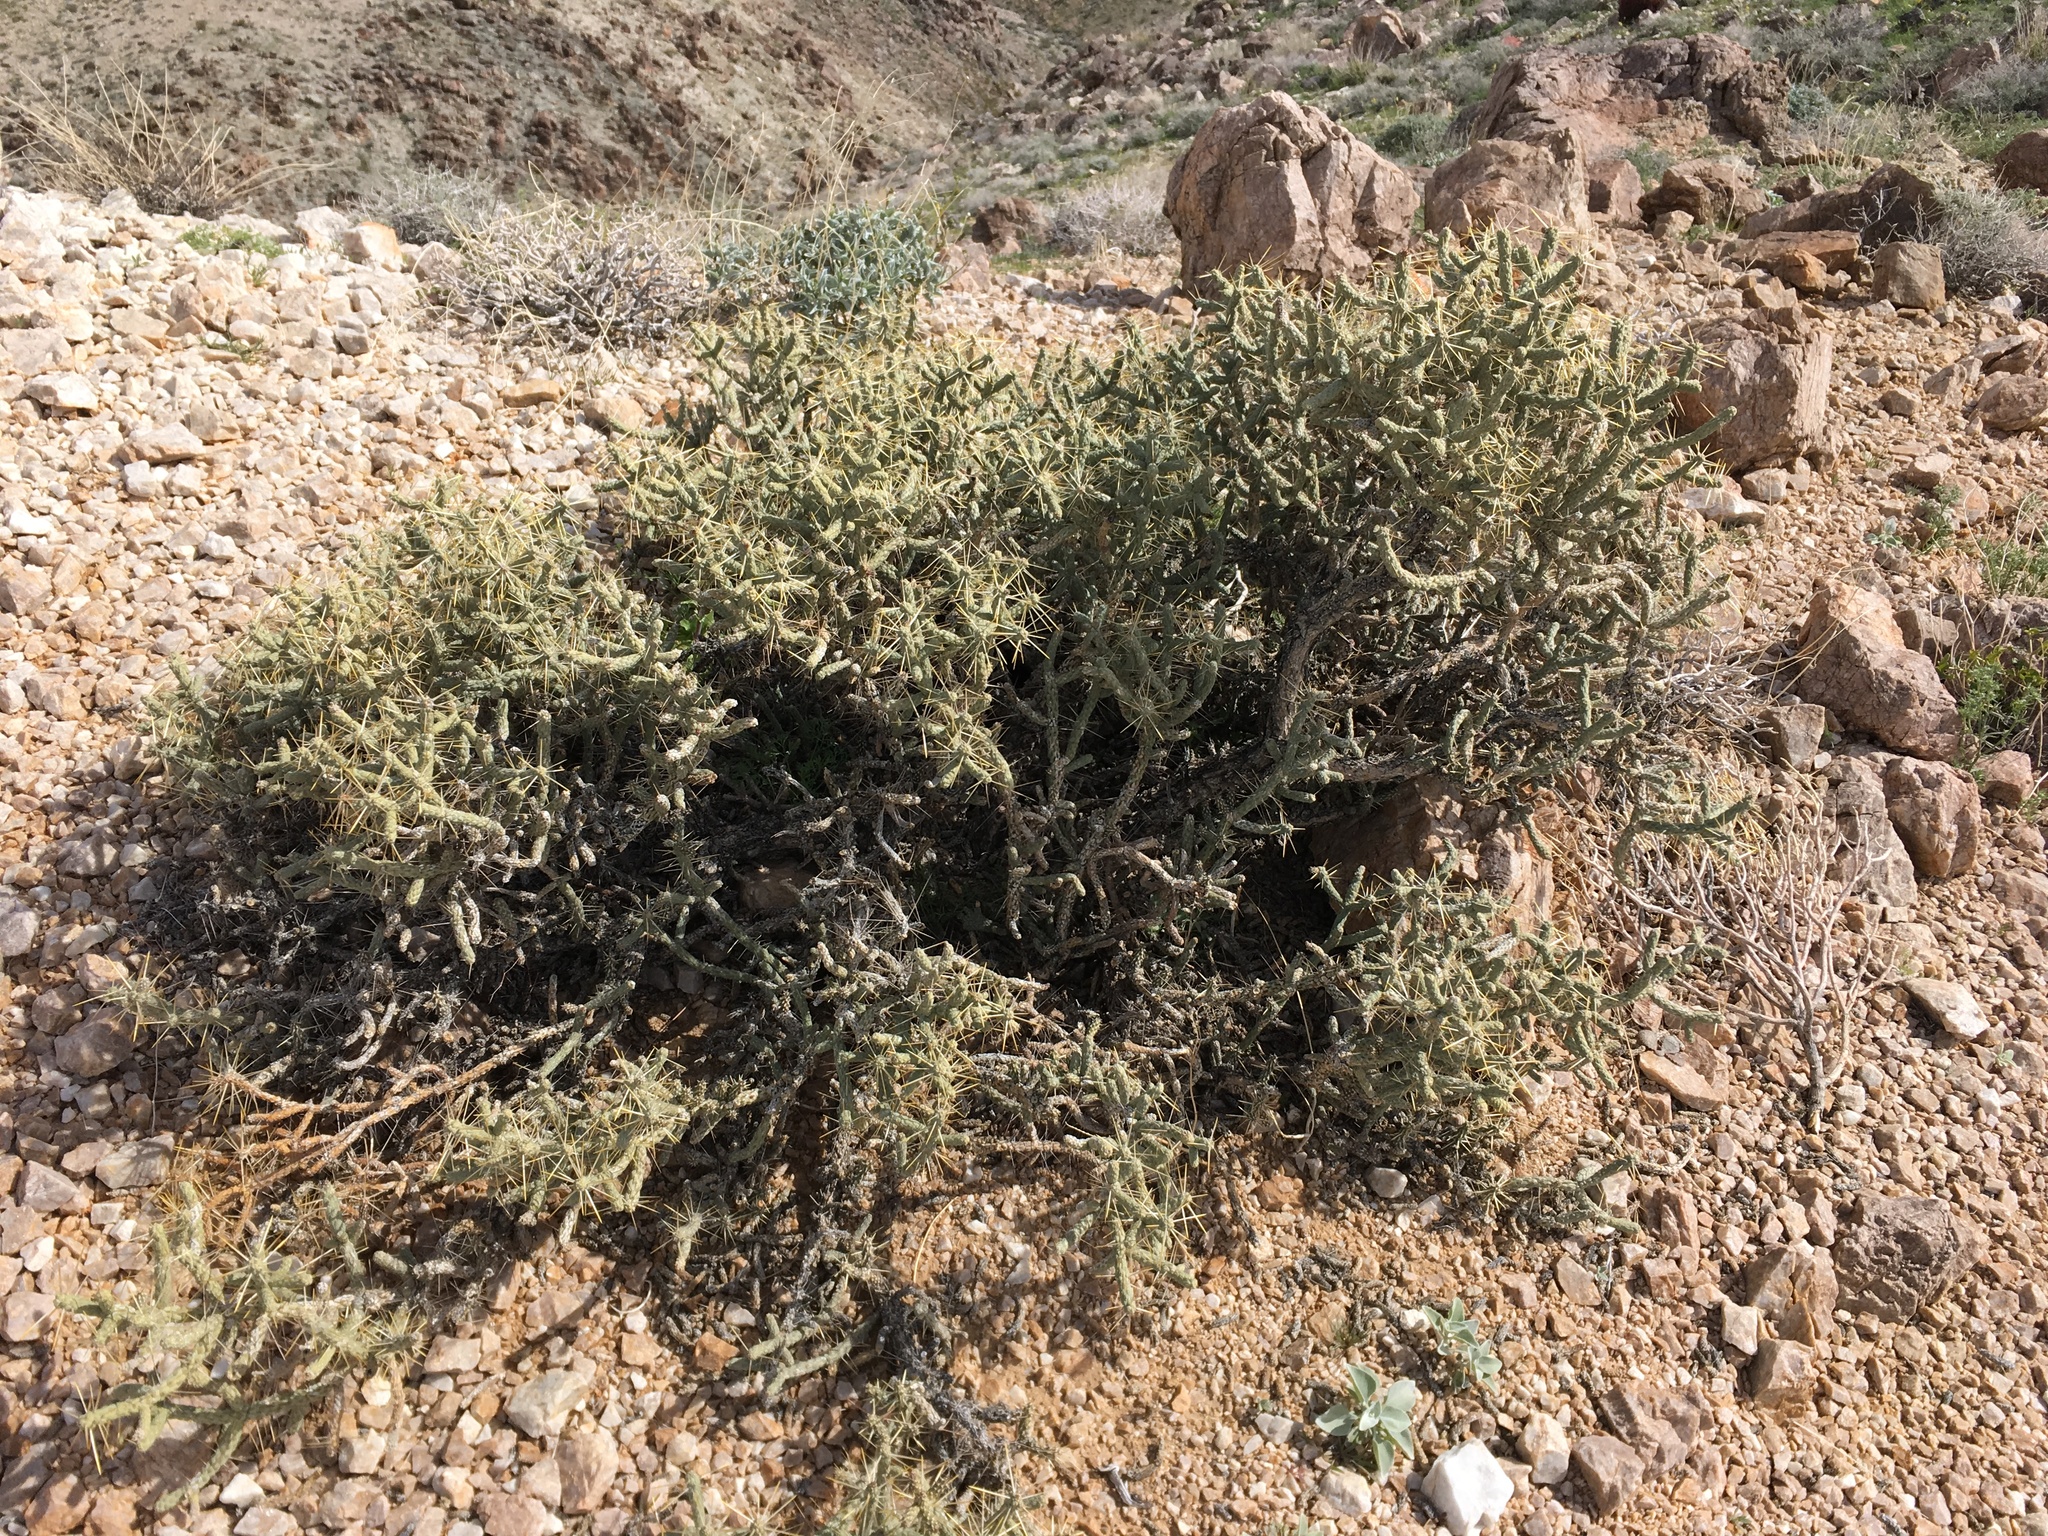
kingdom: Plantae
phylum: Tracheophyta
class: Magnoliopsida
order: Caryophyllales
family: Cactaceae
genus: Cylindropuntia
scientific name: Cylindropuntia ramosissima
